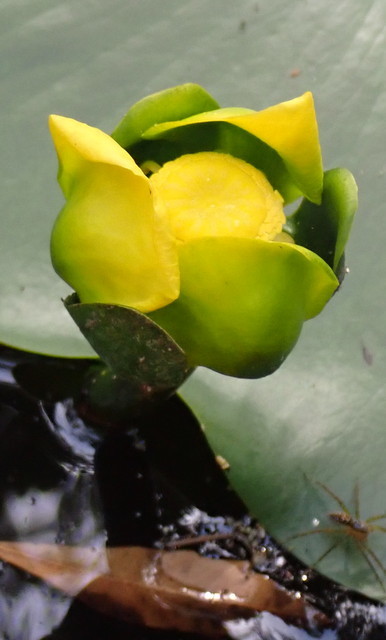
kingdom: Plantae
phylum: Tracheophyta
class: Magnoliopsida
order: Nymphaeales
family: Nymphaeaceae
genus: Nuphar
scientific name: Nuphar advena
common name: Spatter-dock
